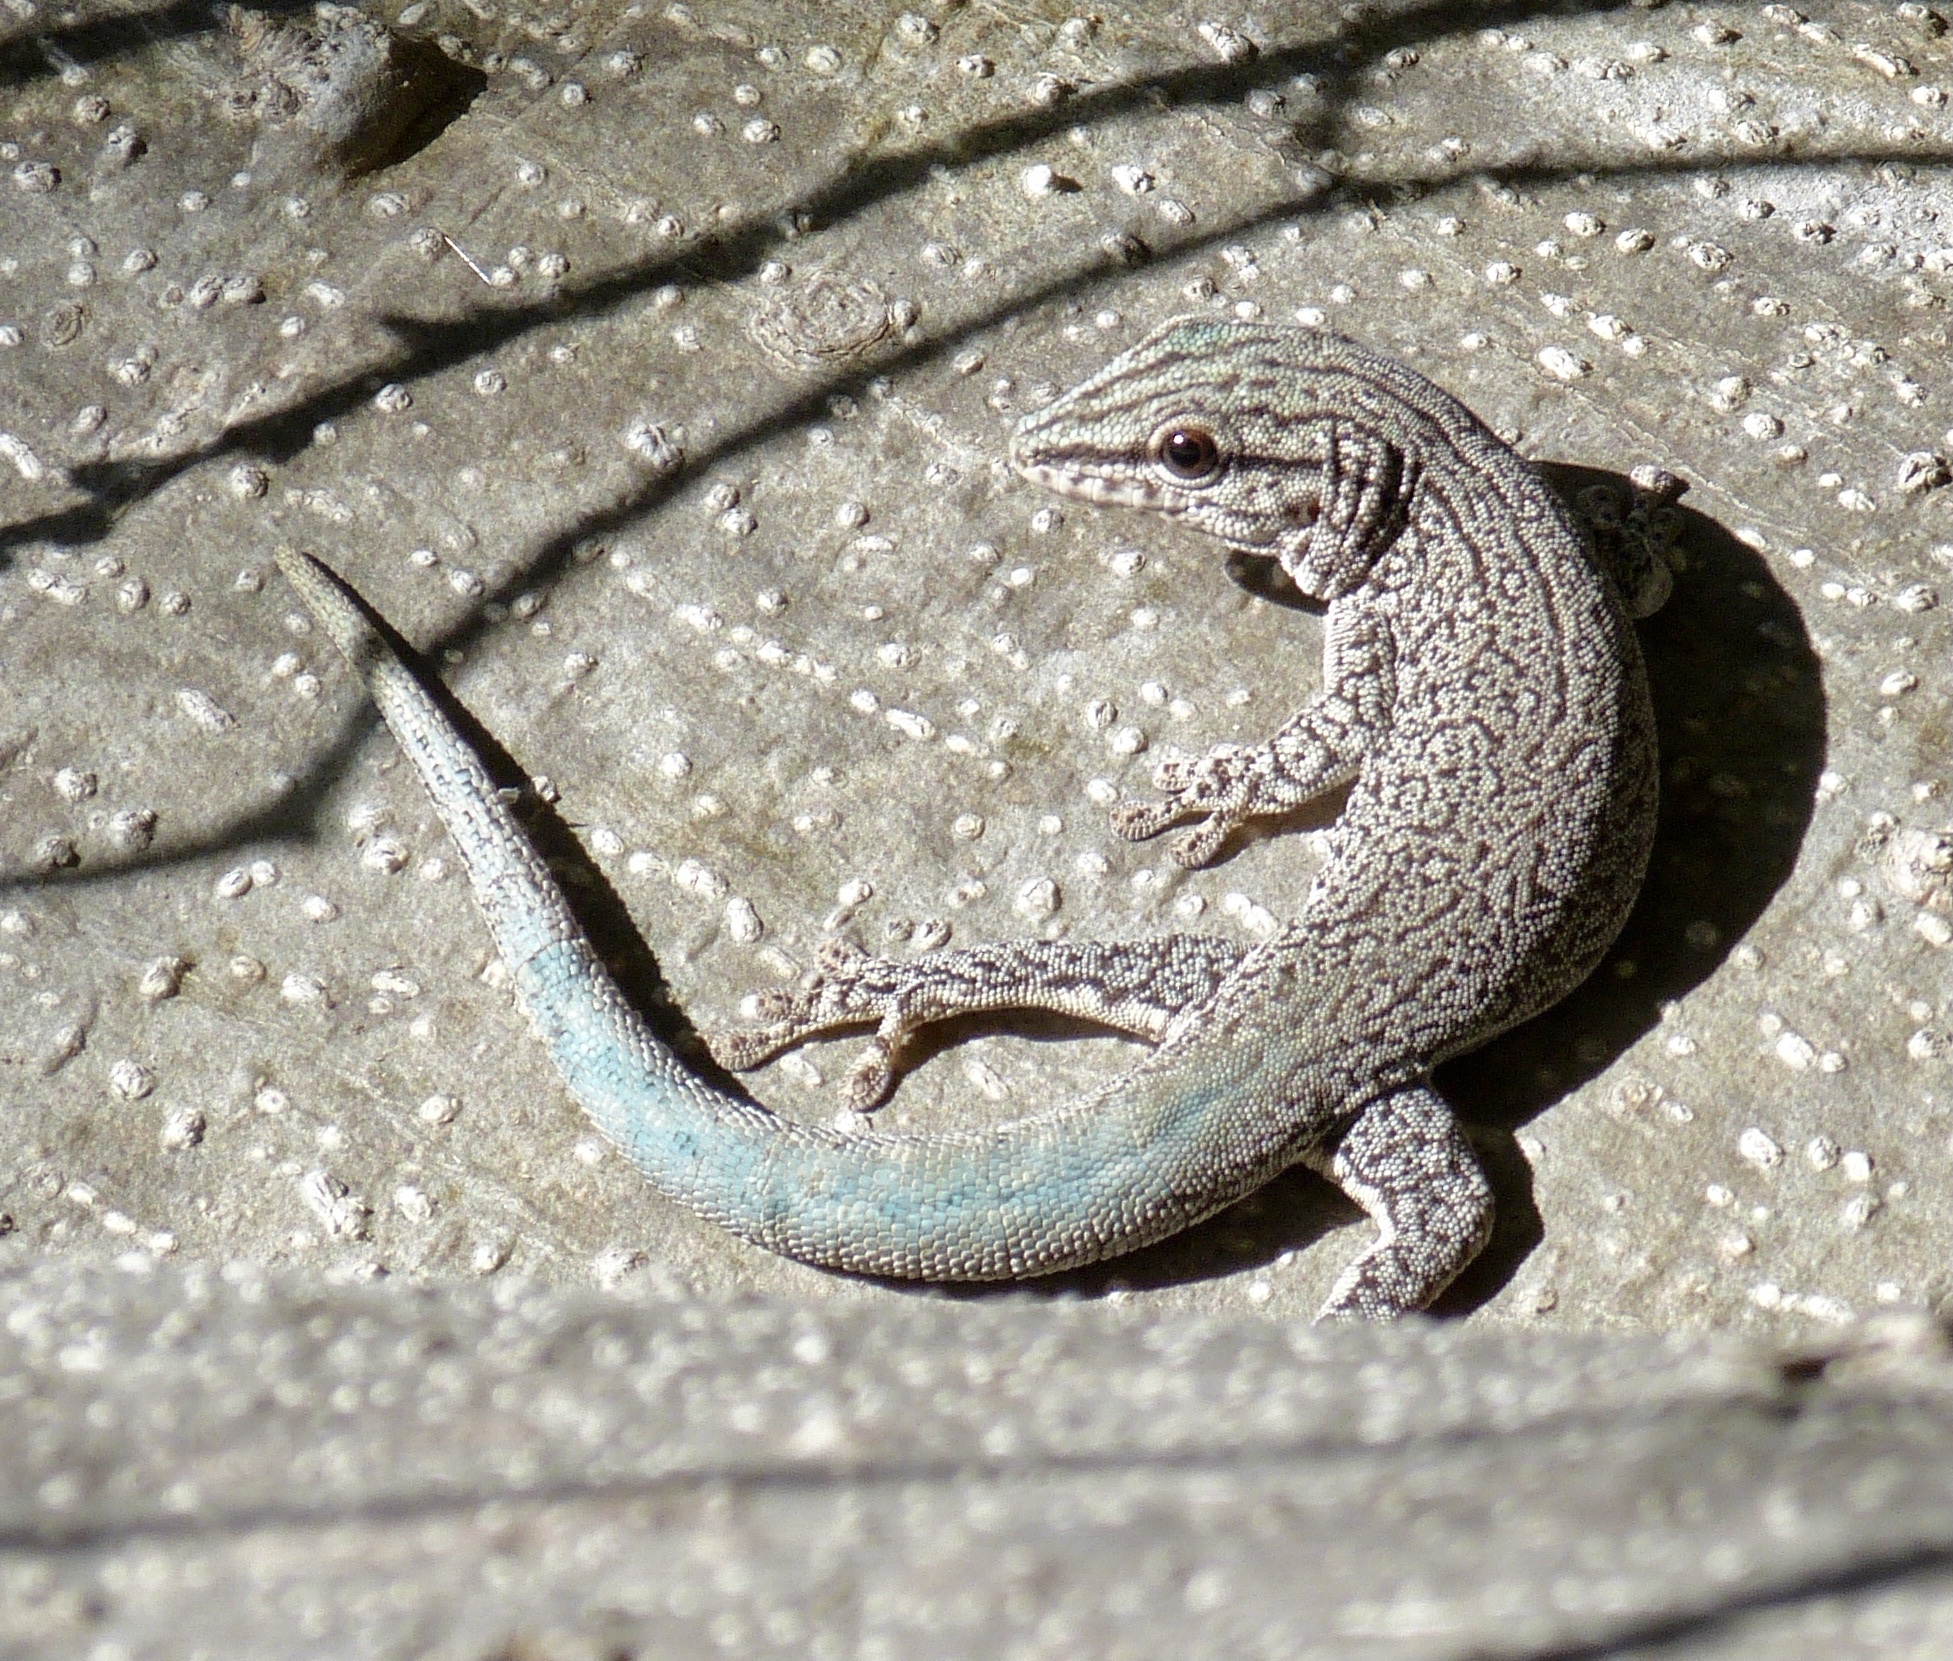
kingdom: Animalia
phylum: Chordata
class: Squamata
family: Gekkonidae
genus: Phelsuma
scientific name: Phelsuma gouldi
